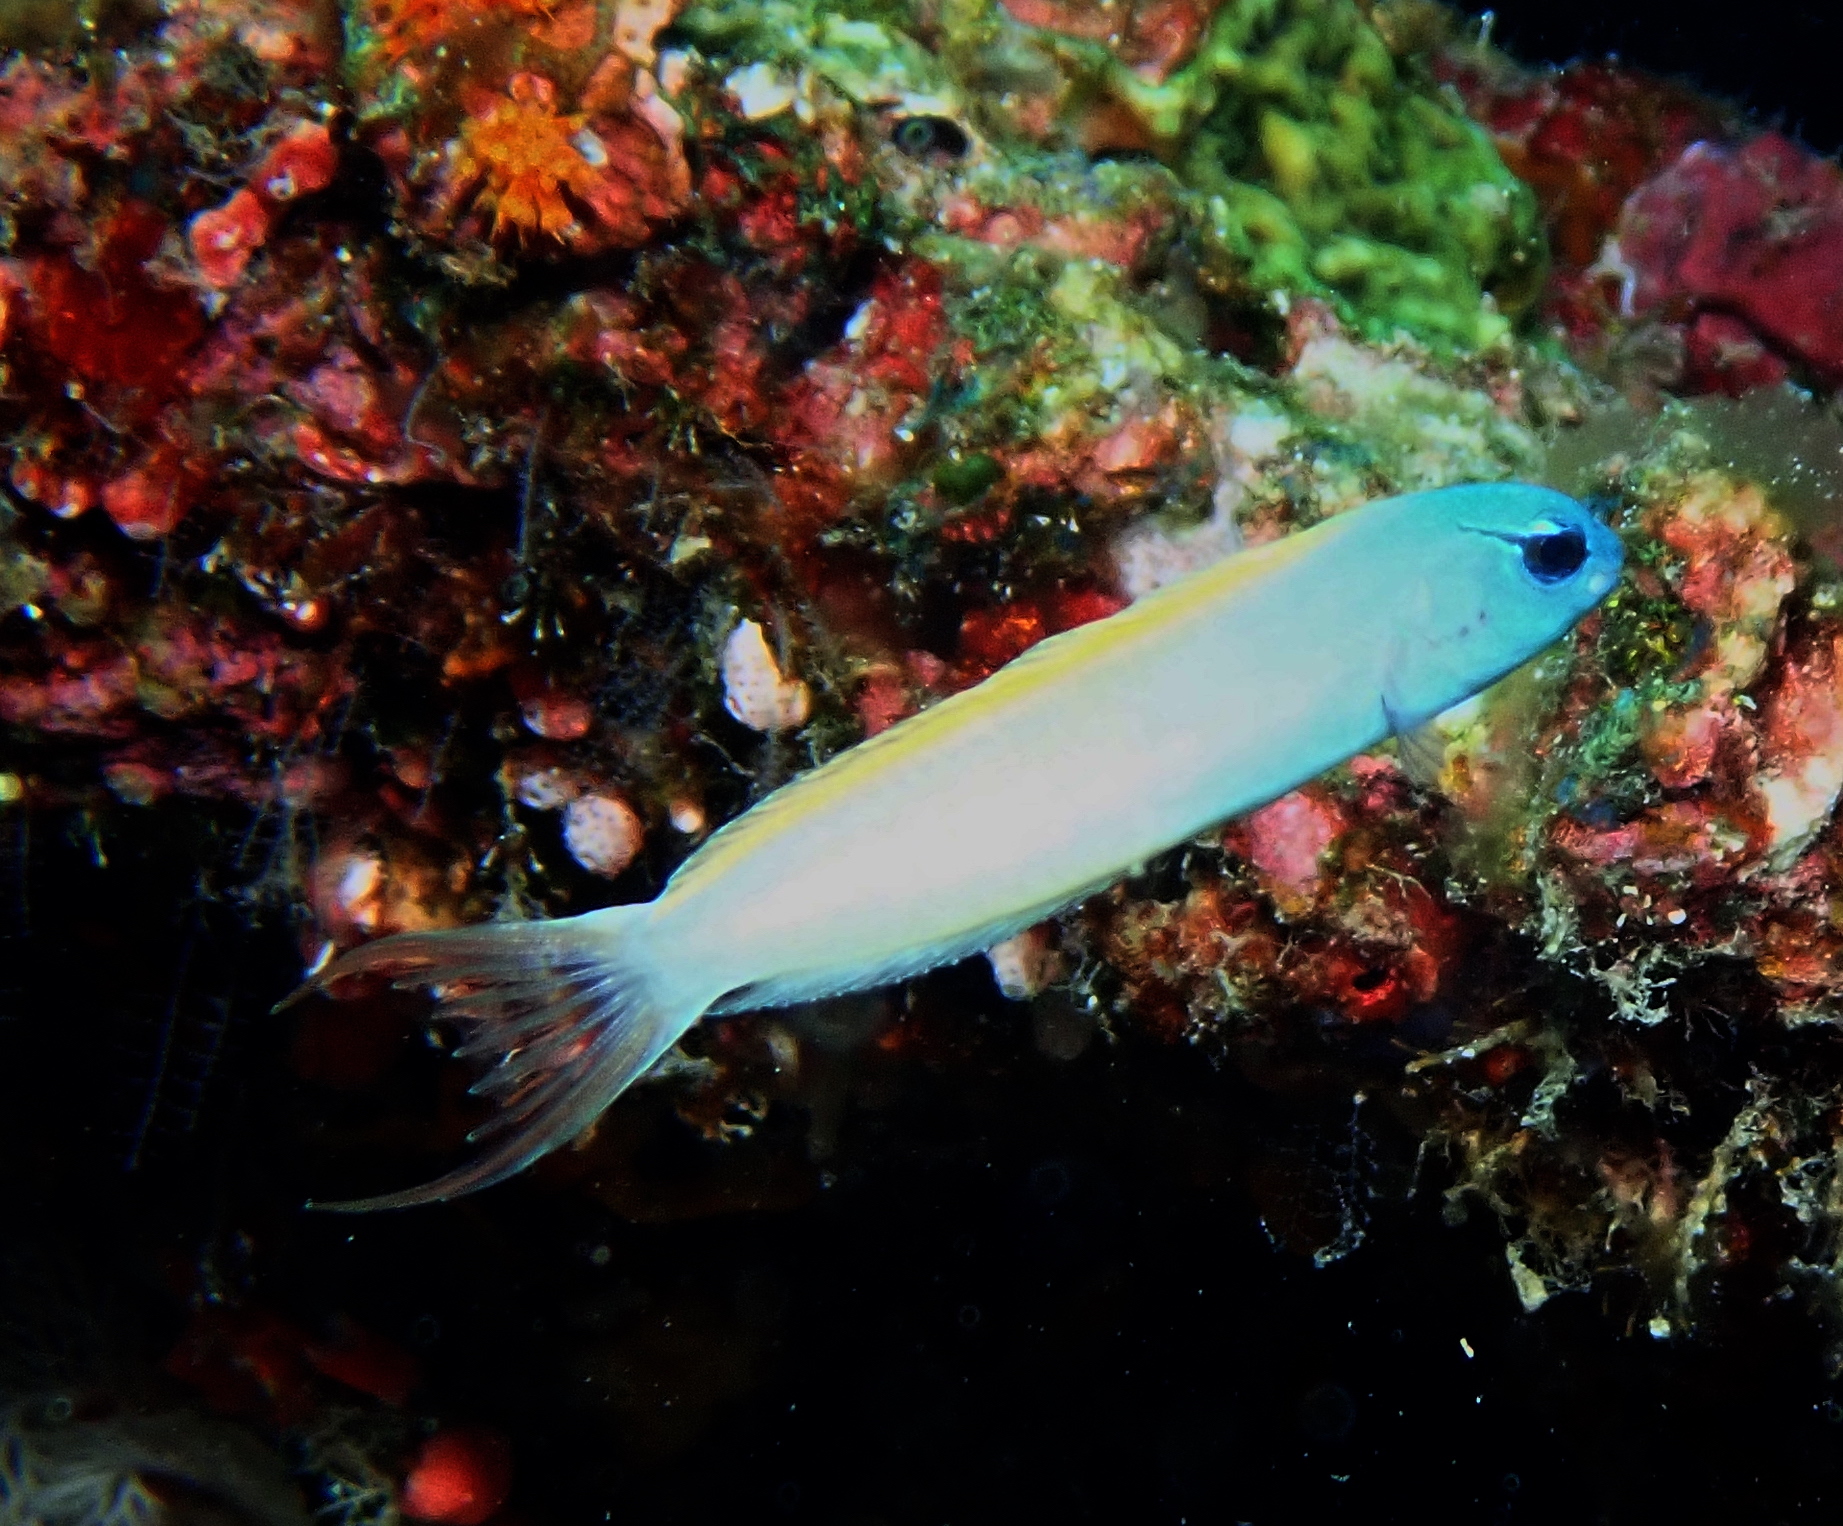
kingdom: Animalia
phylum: Chordata
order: Perciformes
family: Blenniidae
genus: Meiacanthus
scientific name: Meiacanthus atrodorsalis
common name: Eye-lash harptail-blenny
